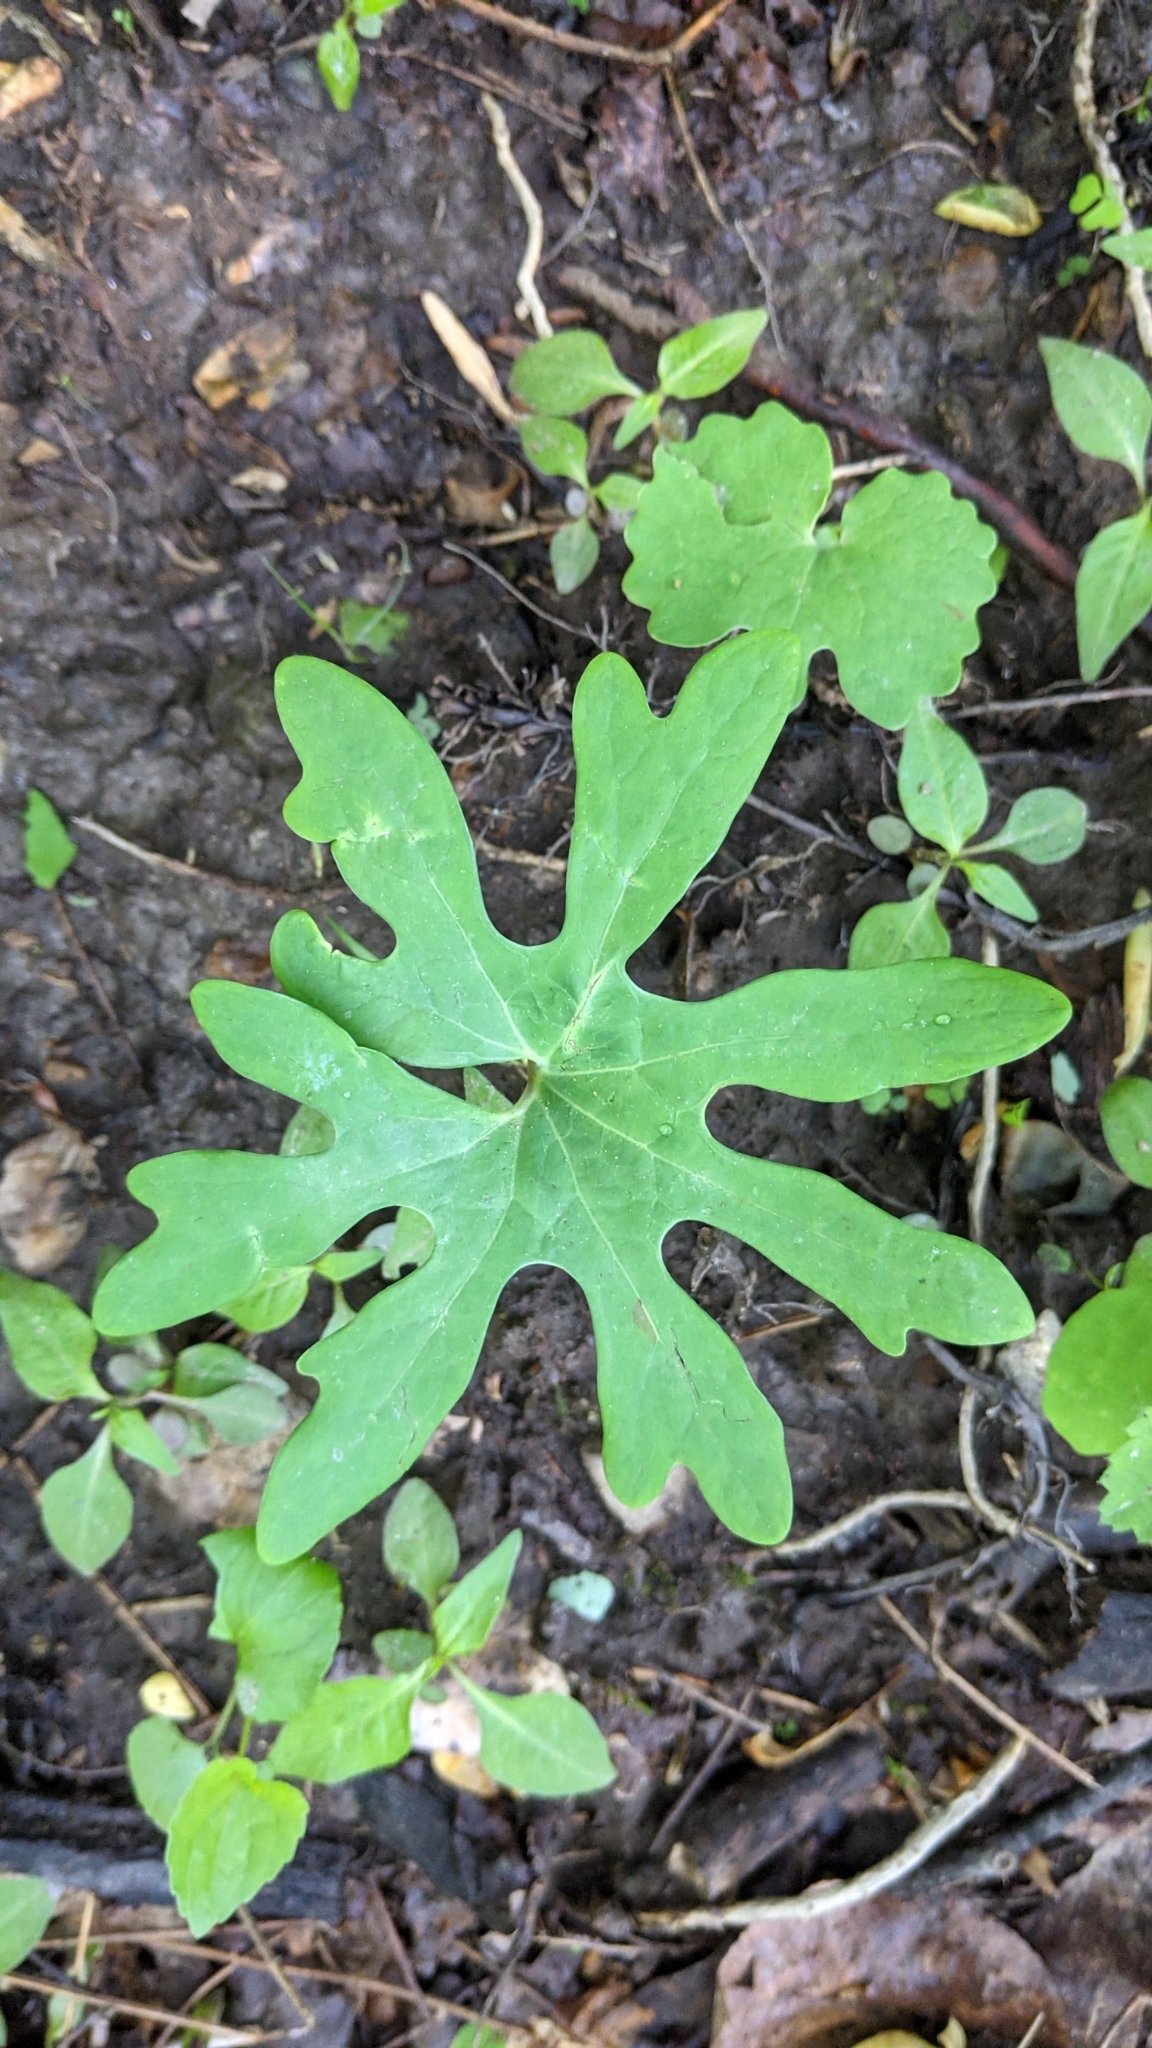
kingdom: Plantae
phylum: Tracheophyta
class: Magnoliopsida
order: Ranunculales
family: Papaveraceae
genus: Sanguinaria
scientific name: Sanguinaria canadensis
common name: Bloodroot
